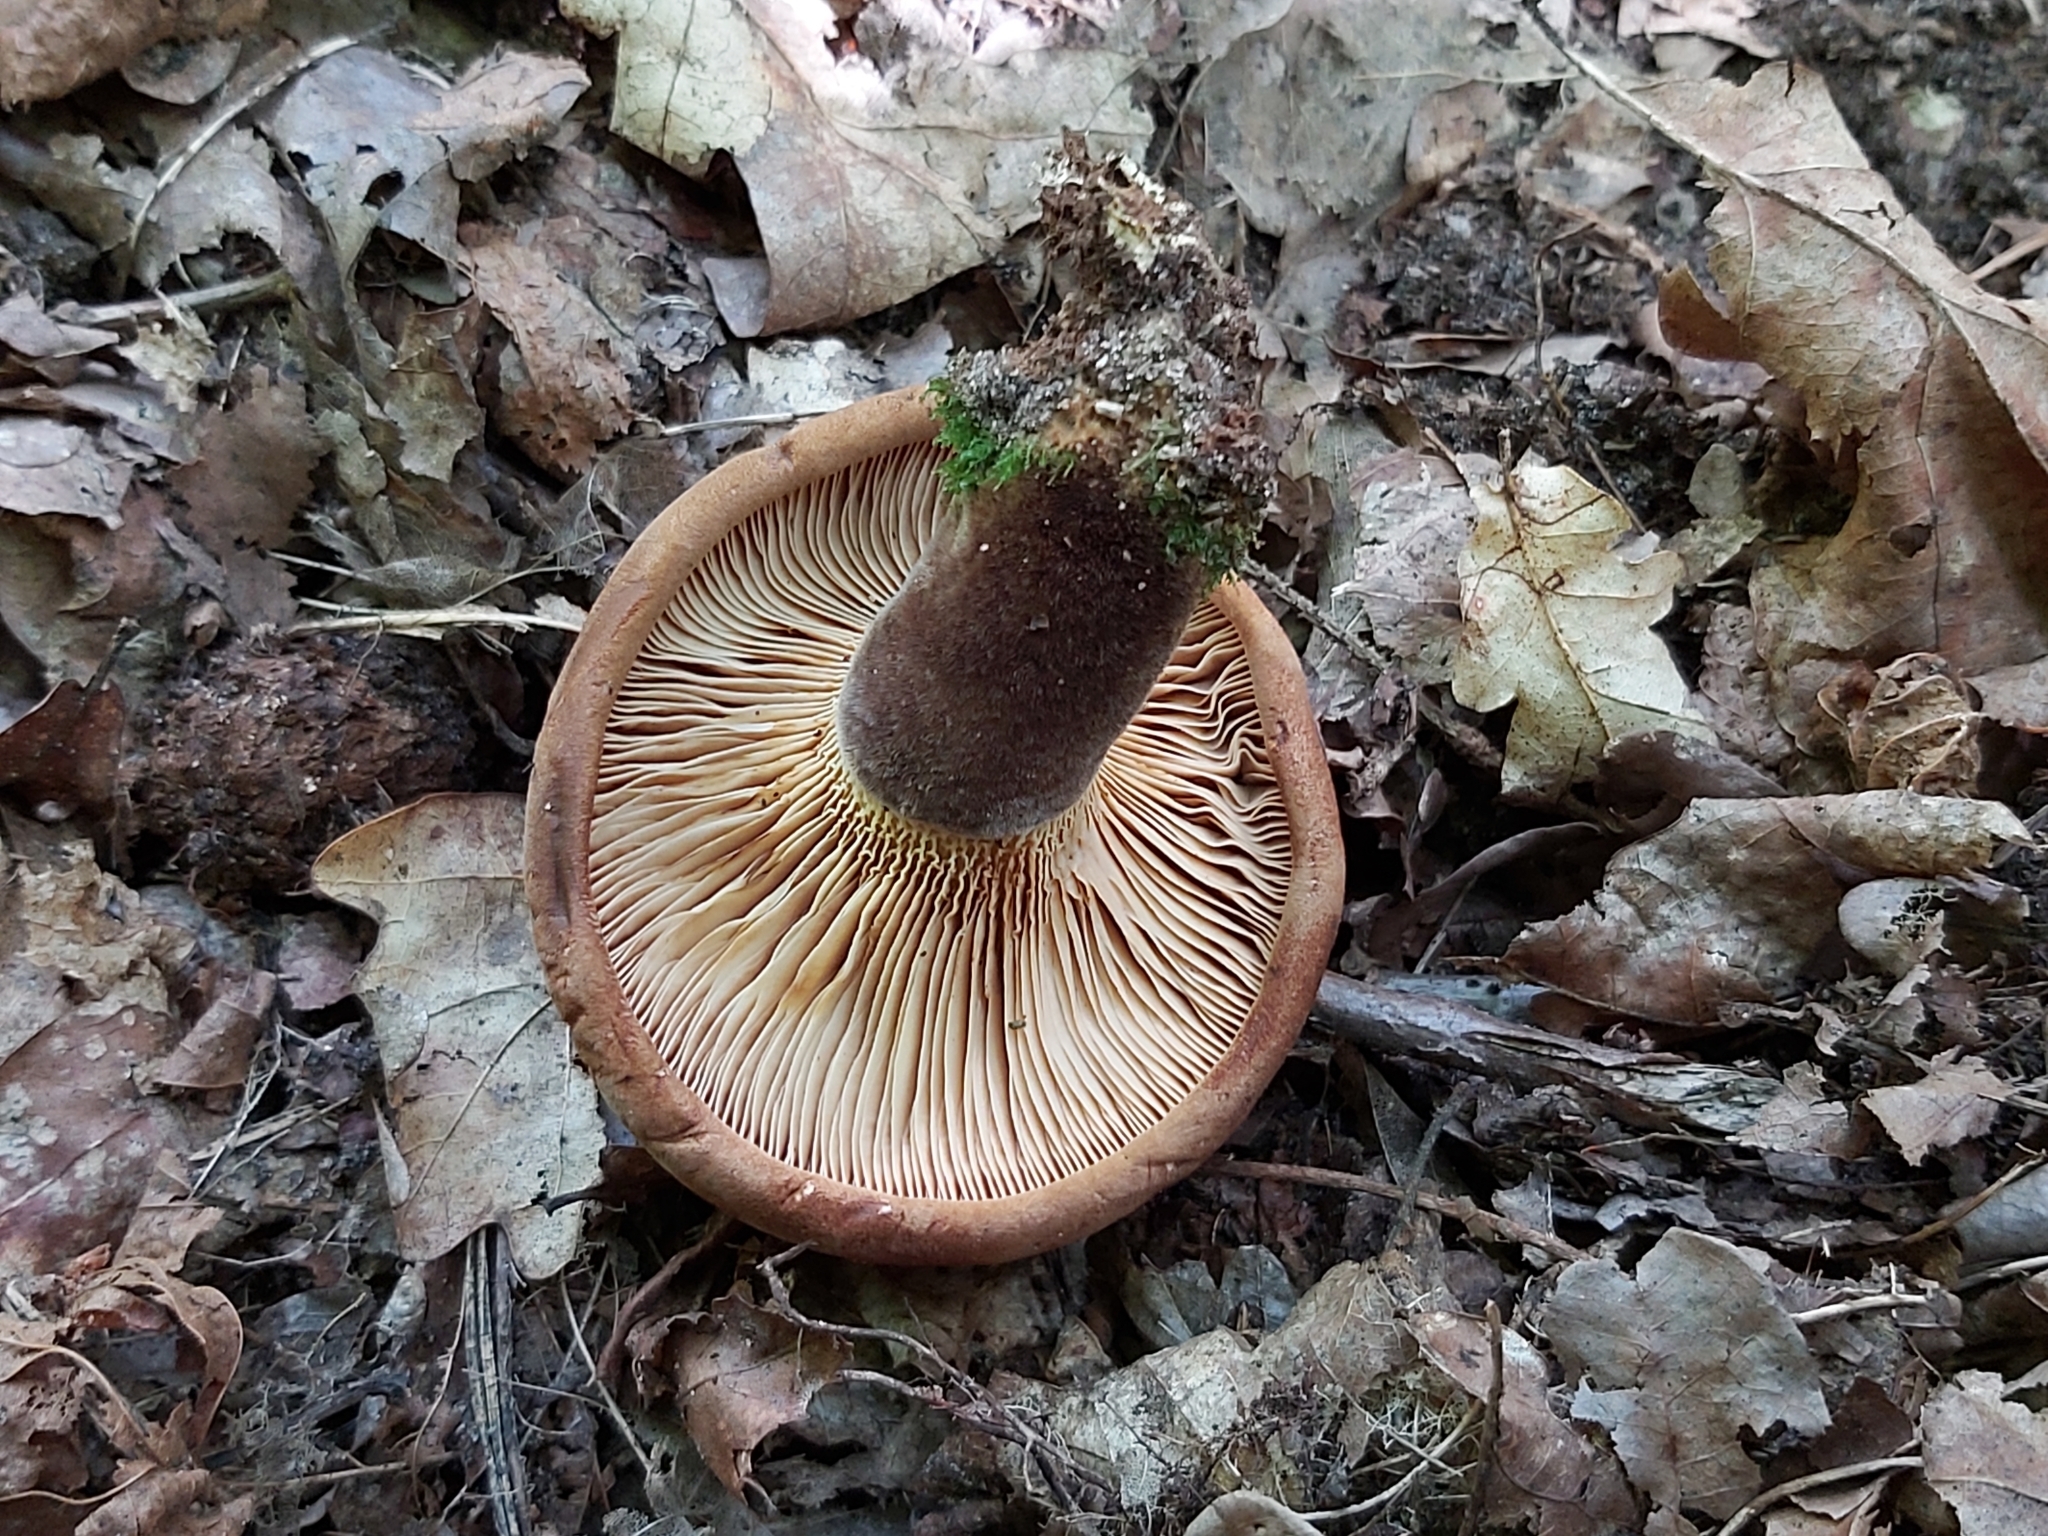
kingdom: Fungi
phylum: Basidiomycota
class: Agaricomycetes
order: Boletales
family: Tapinellaceae
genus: Tapinella
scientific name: Tapinella atrotomentosa
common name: Velvet rollrim
